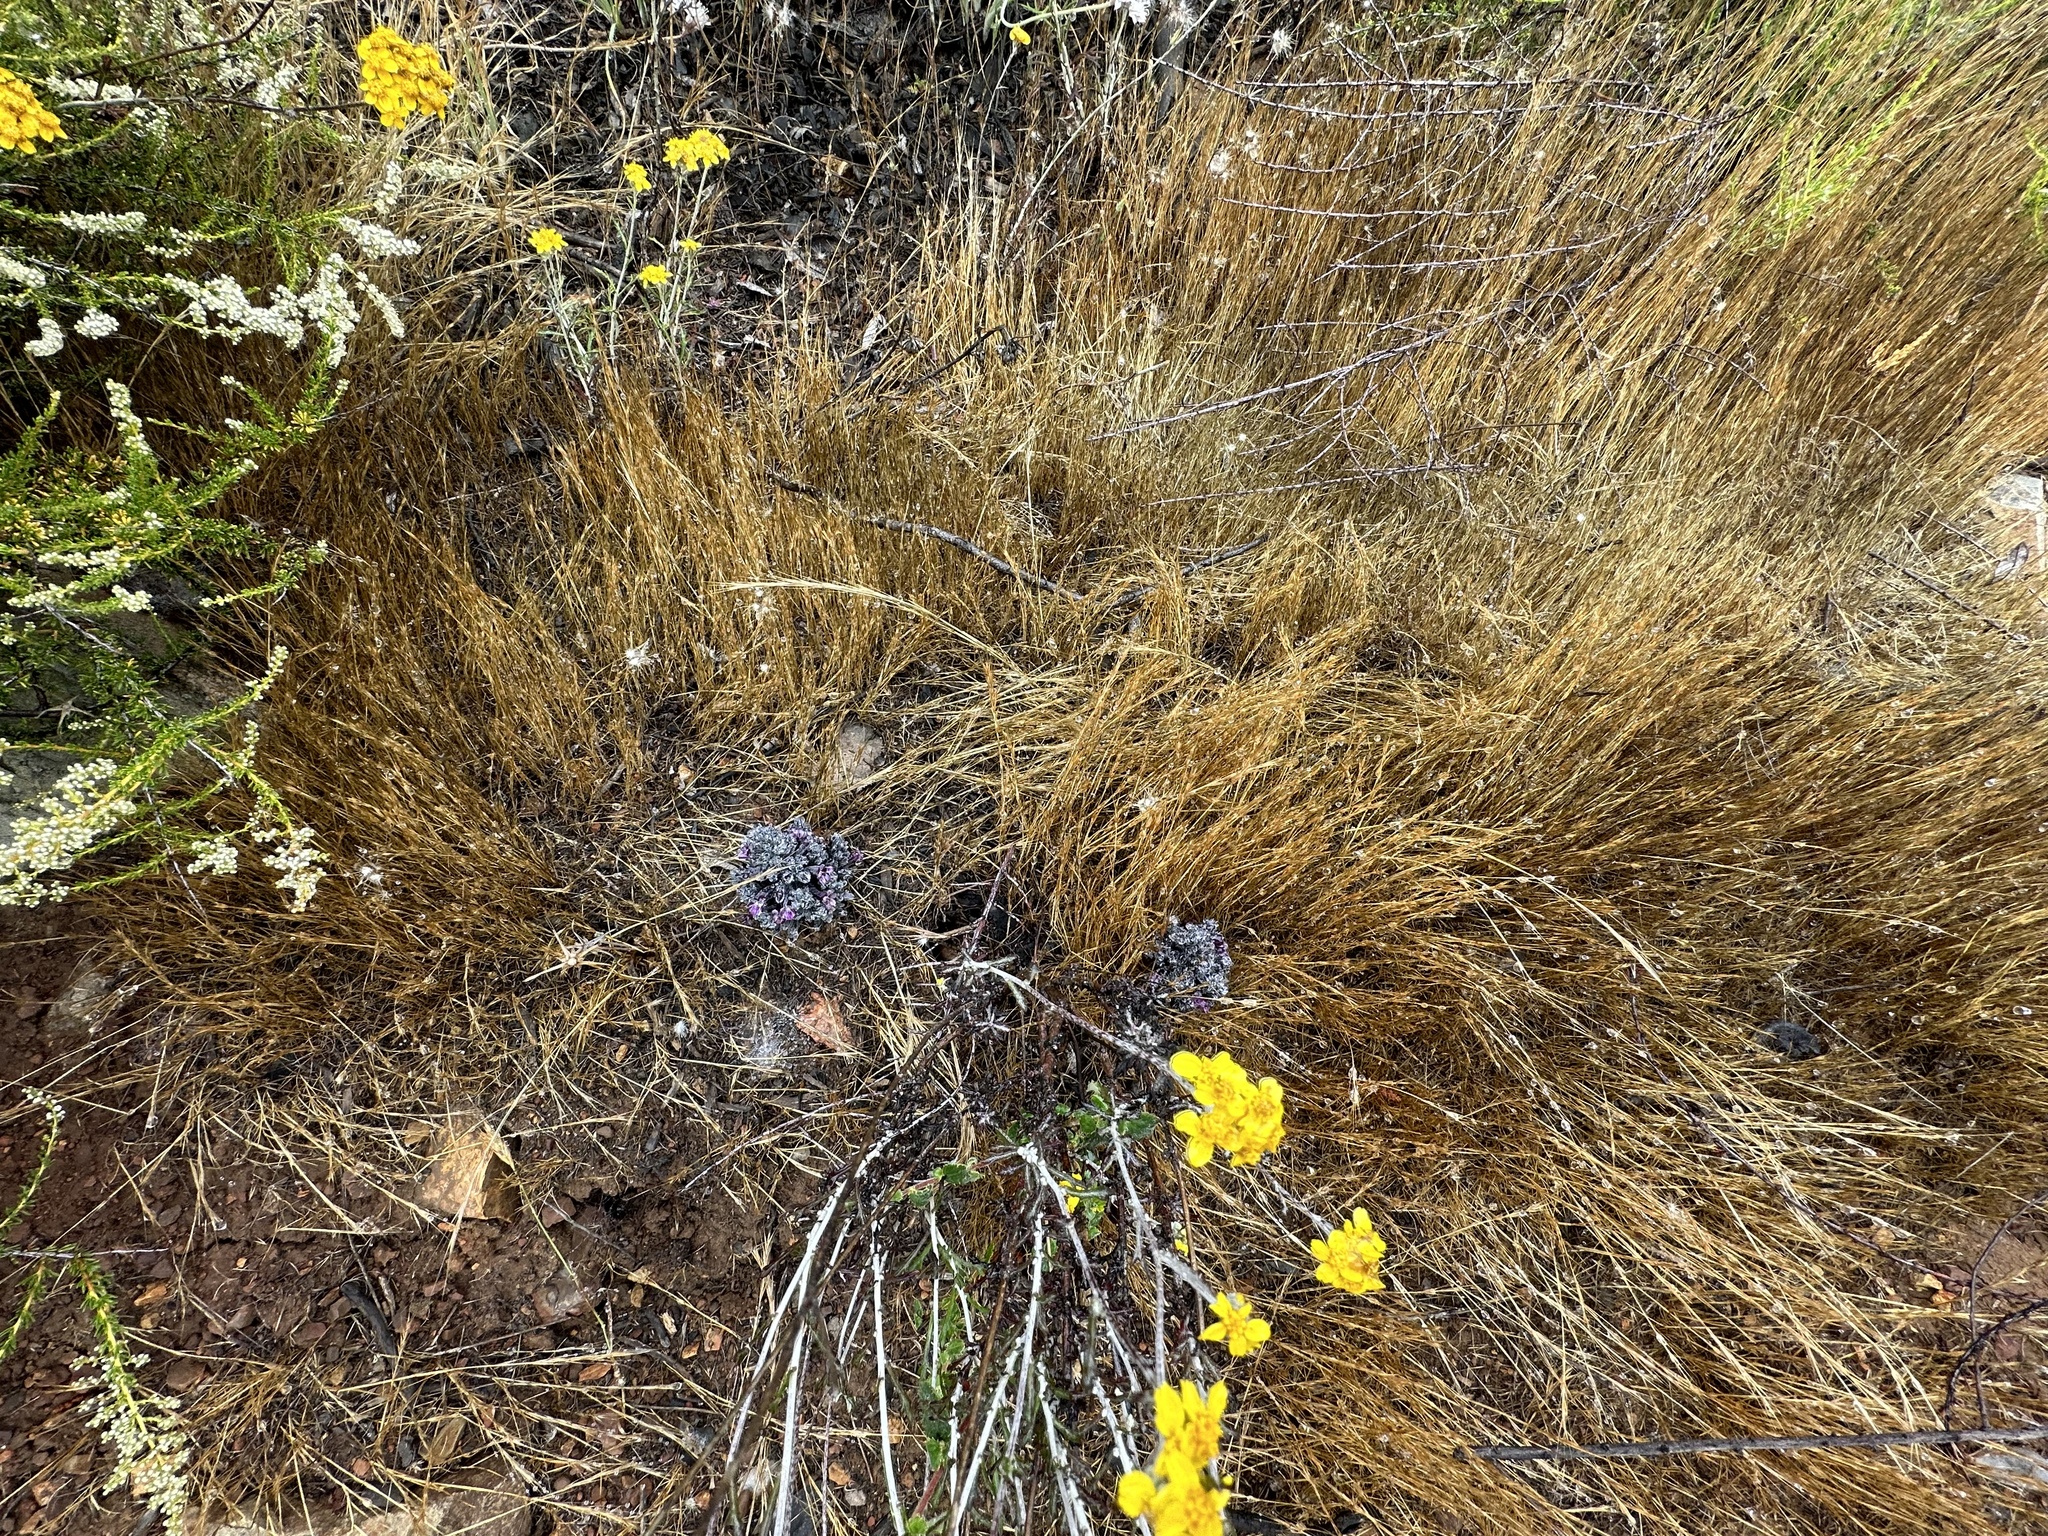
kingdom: Plantae
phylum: Tracheophyta
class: Magnoliopsida
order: Lamiales
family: Orobanchaceae
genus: Aphyllon
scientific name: Aphyllon tuberosum
